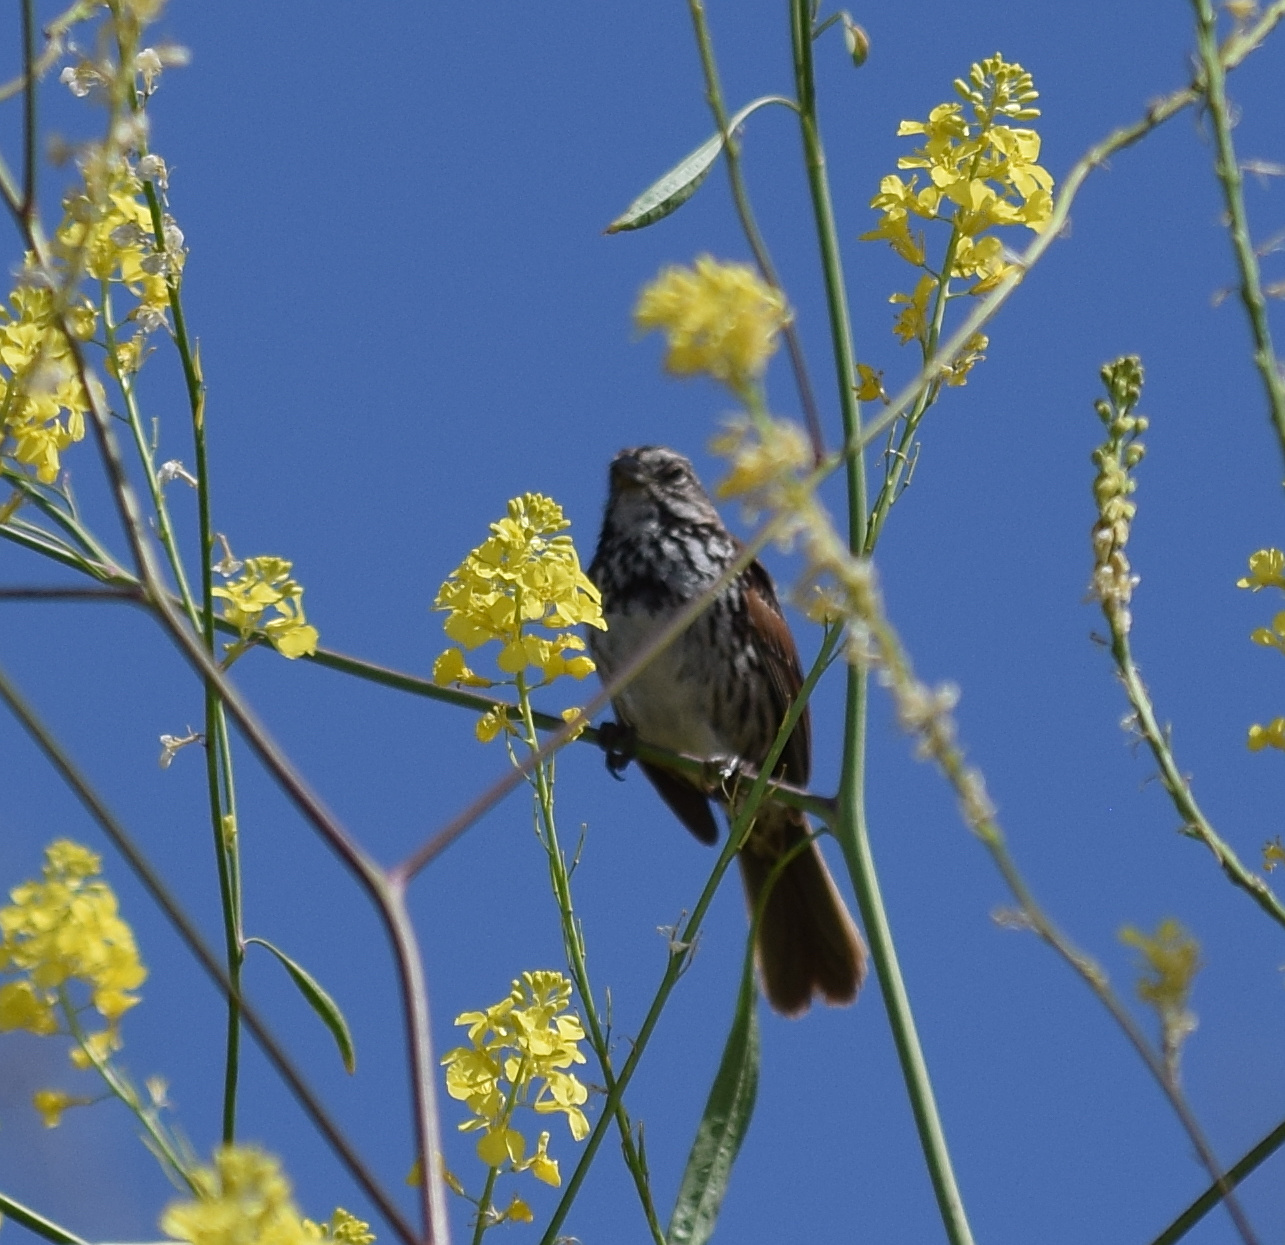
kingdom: Animalia
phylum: Chordata
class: Aves
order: Passeriformes
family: Passerellidae
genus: Melospiza
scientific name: Melospiza melodia
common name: Song sparrow
